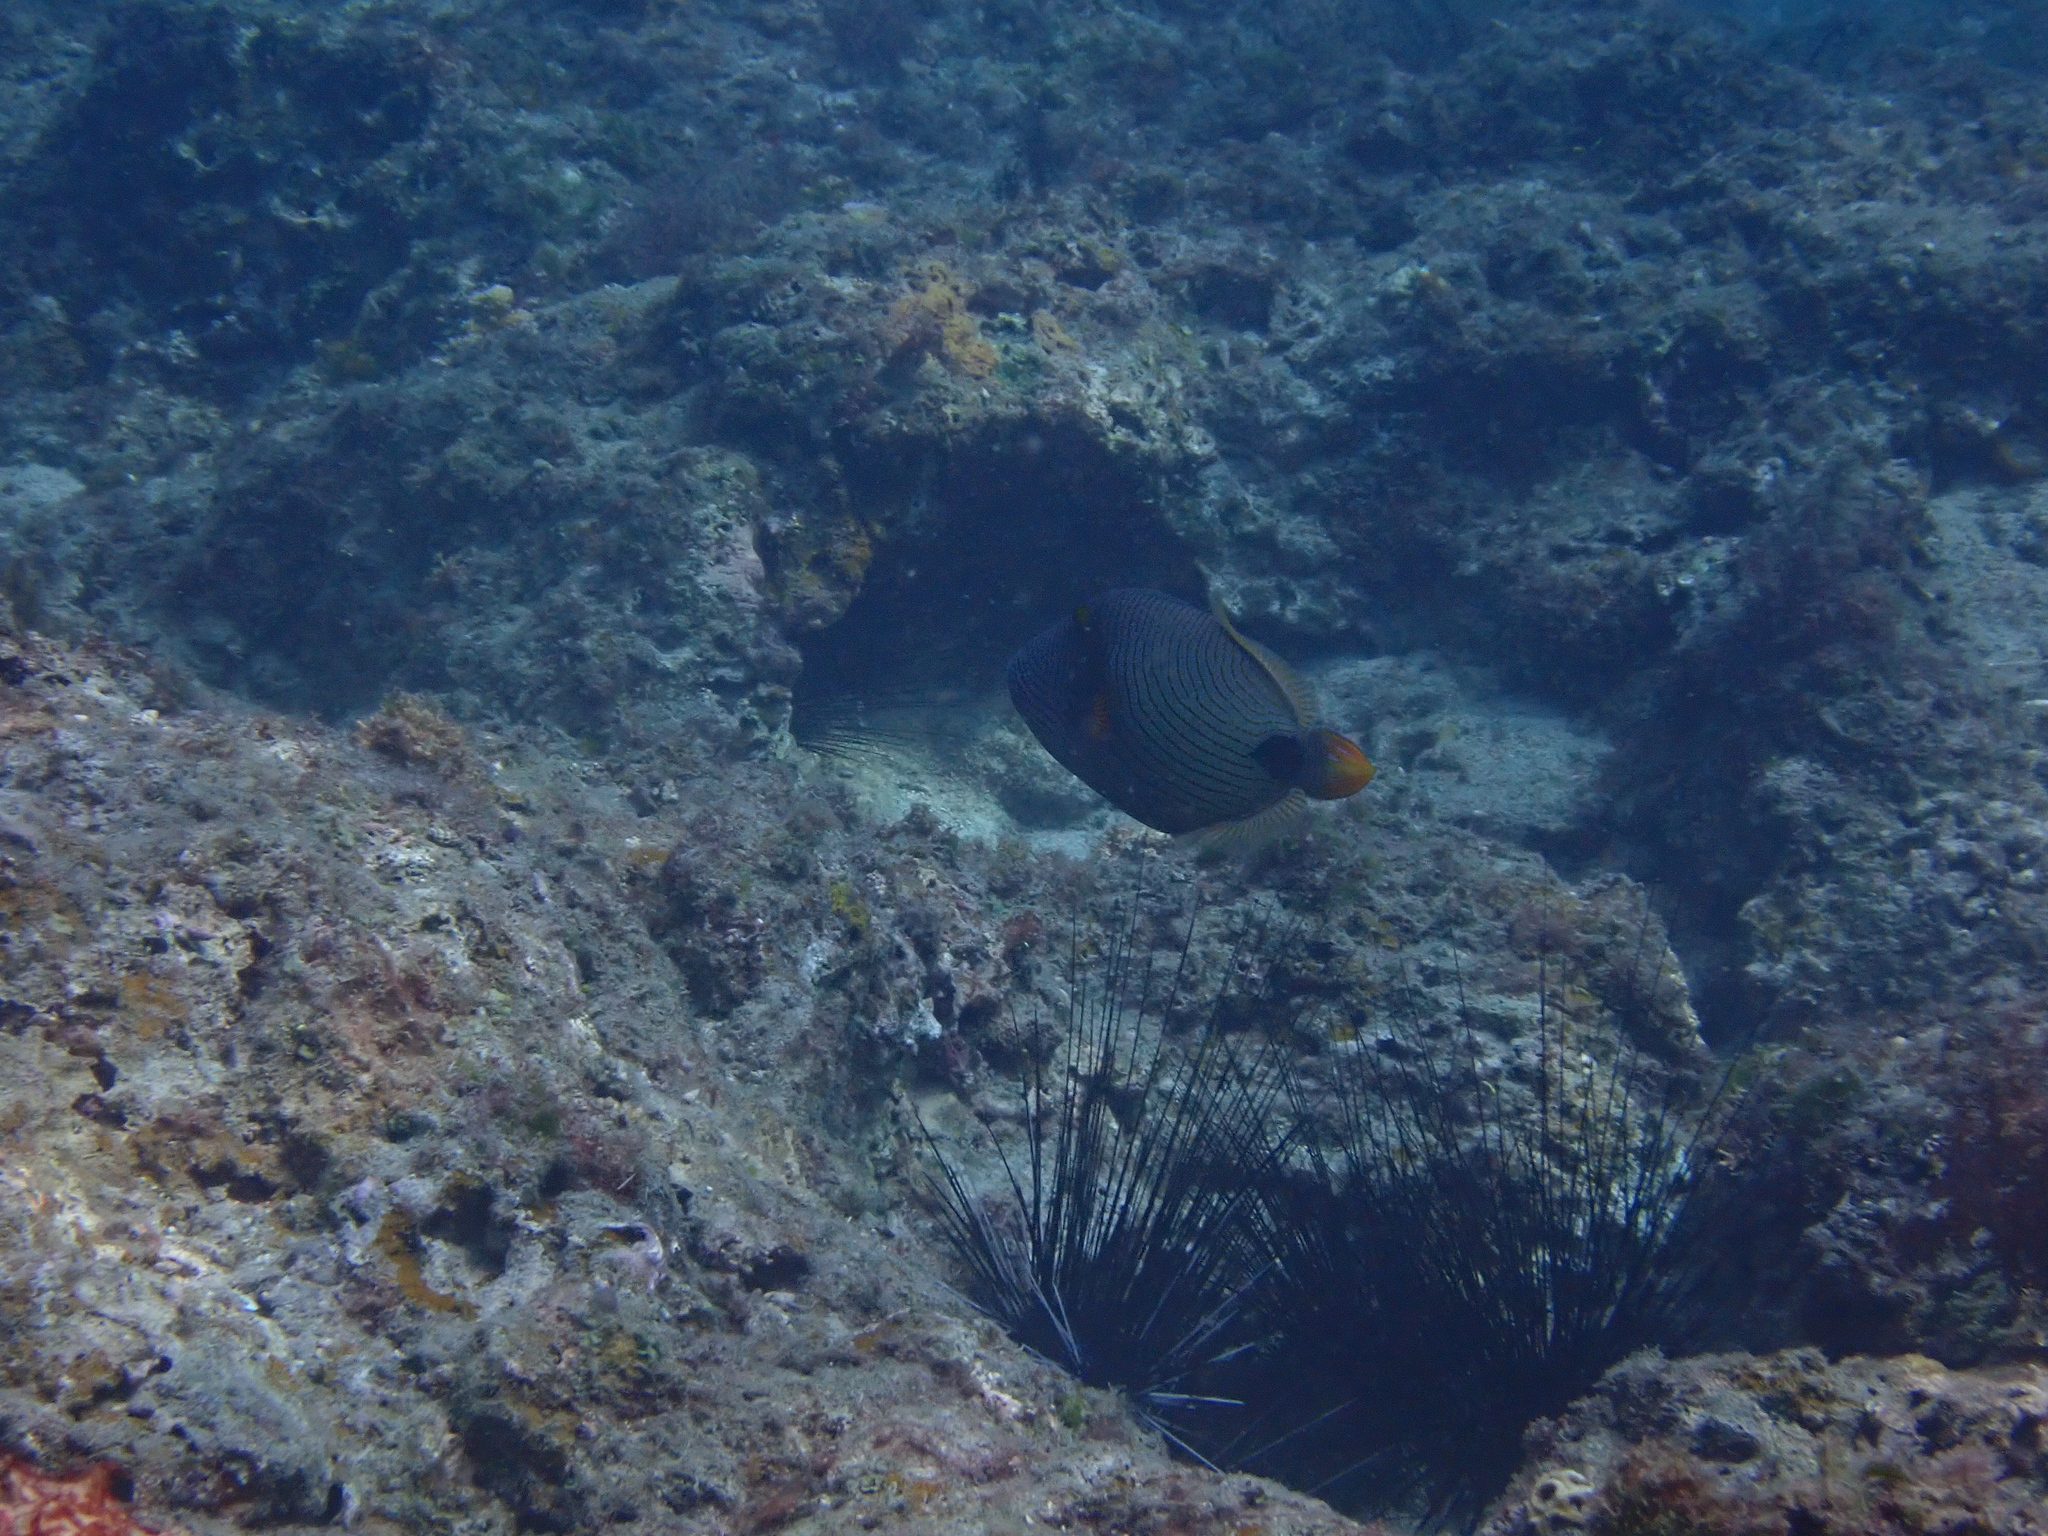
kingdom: Animalia
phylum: Chordata
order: Tetraodontiformes
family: Balistidae
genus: Balistapus
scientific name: Balistapus undulatus
